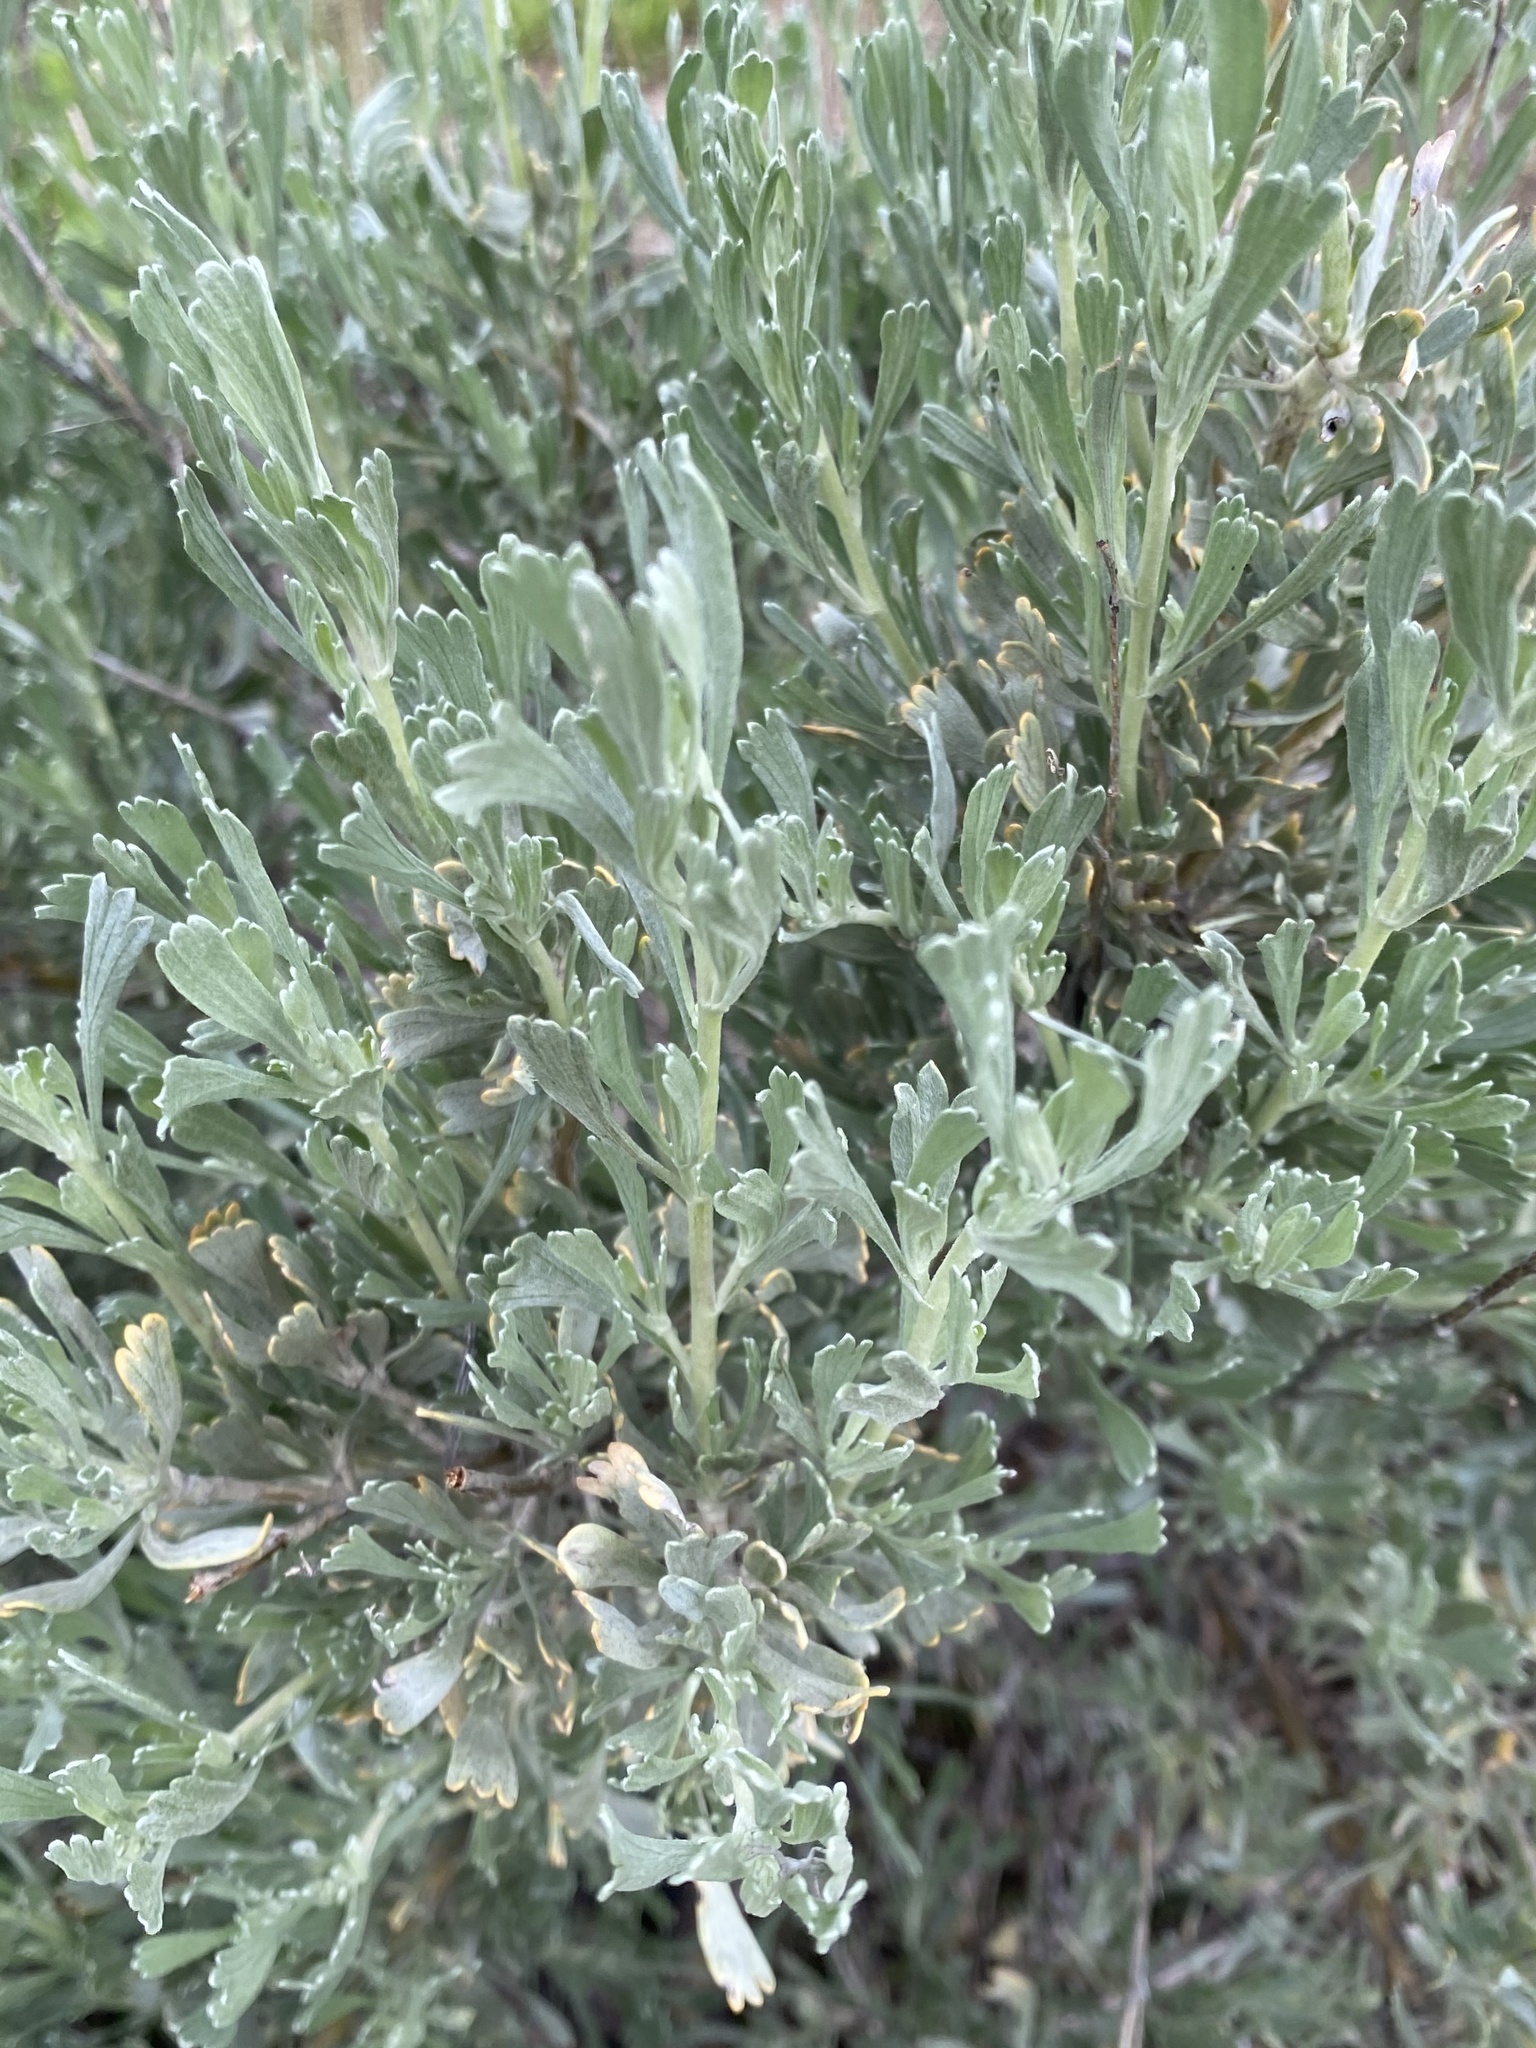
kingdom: Plantae
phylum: Tracheophyta
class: Magnoliopsida
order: Asterales
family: Asteraceae
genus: Artemisia
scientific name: Artemisia tridentata
